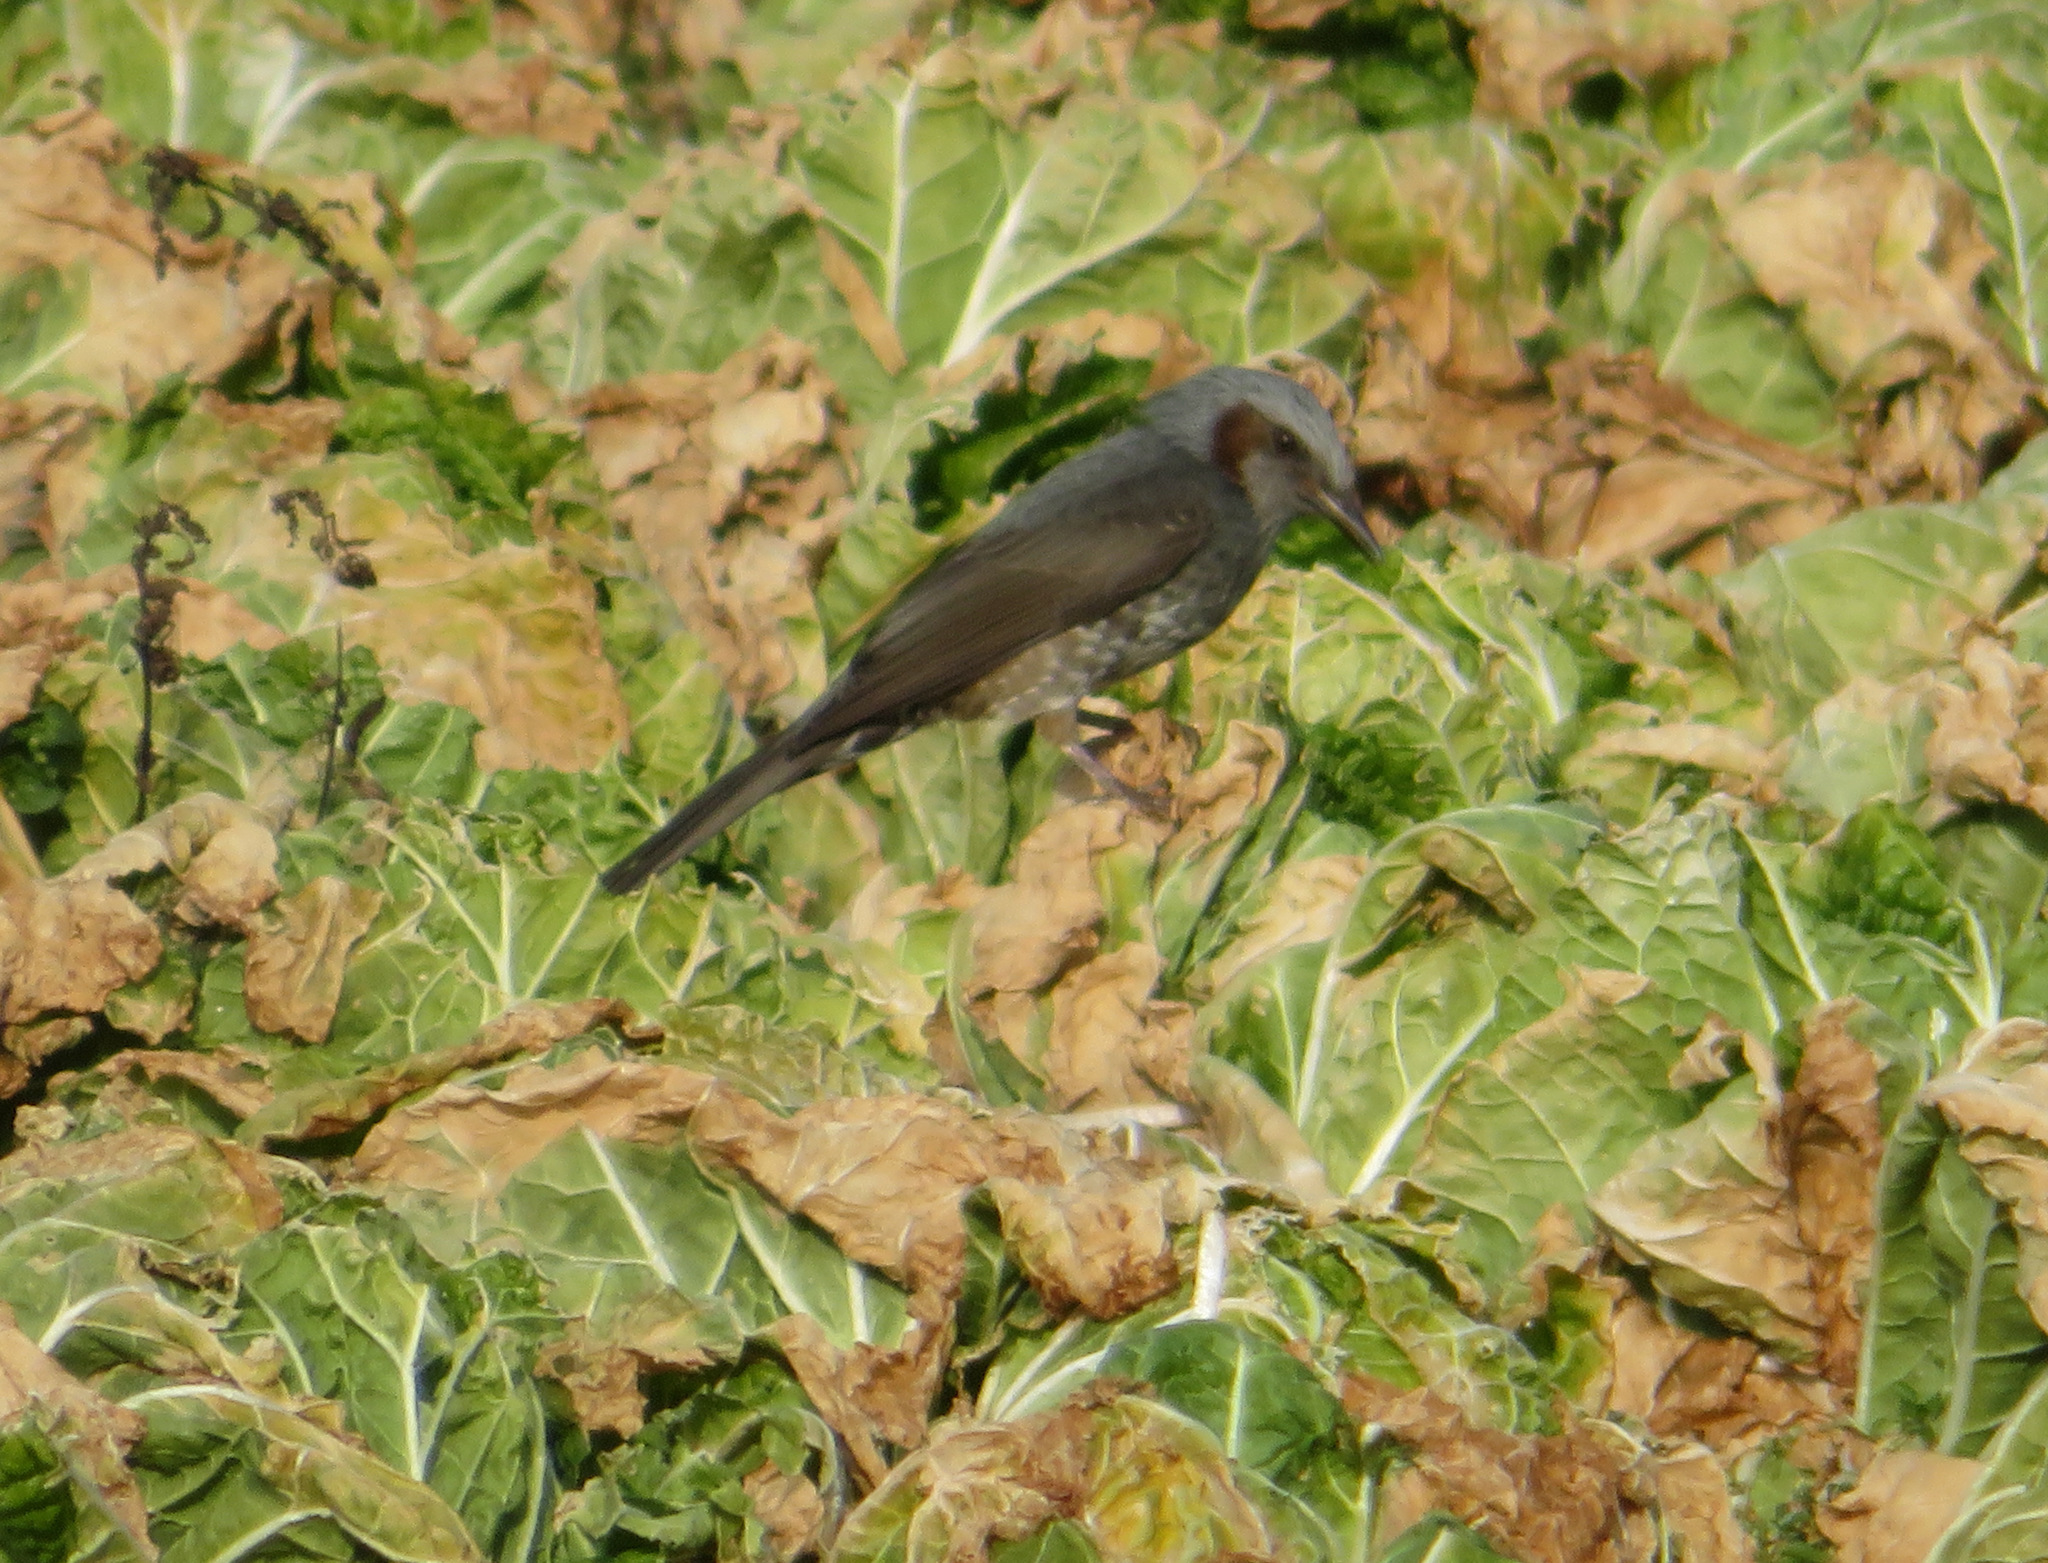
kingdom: Animalia
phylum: Chordata
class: Aves
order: Passeriformes
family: Pycnonotidae
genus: Hypsipetes
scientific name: Hypsipetes amaurotis
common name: Brown-eared bulbul
